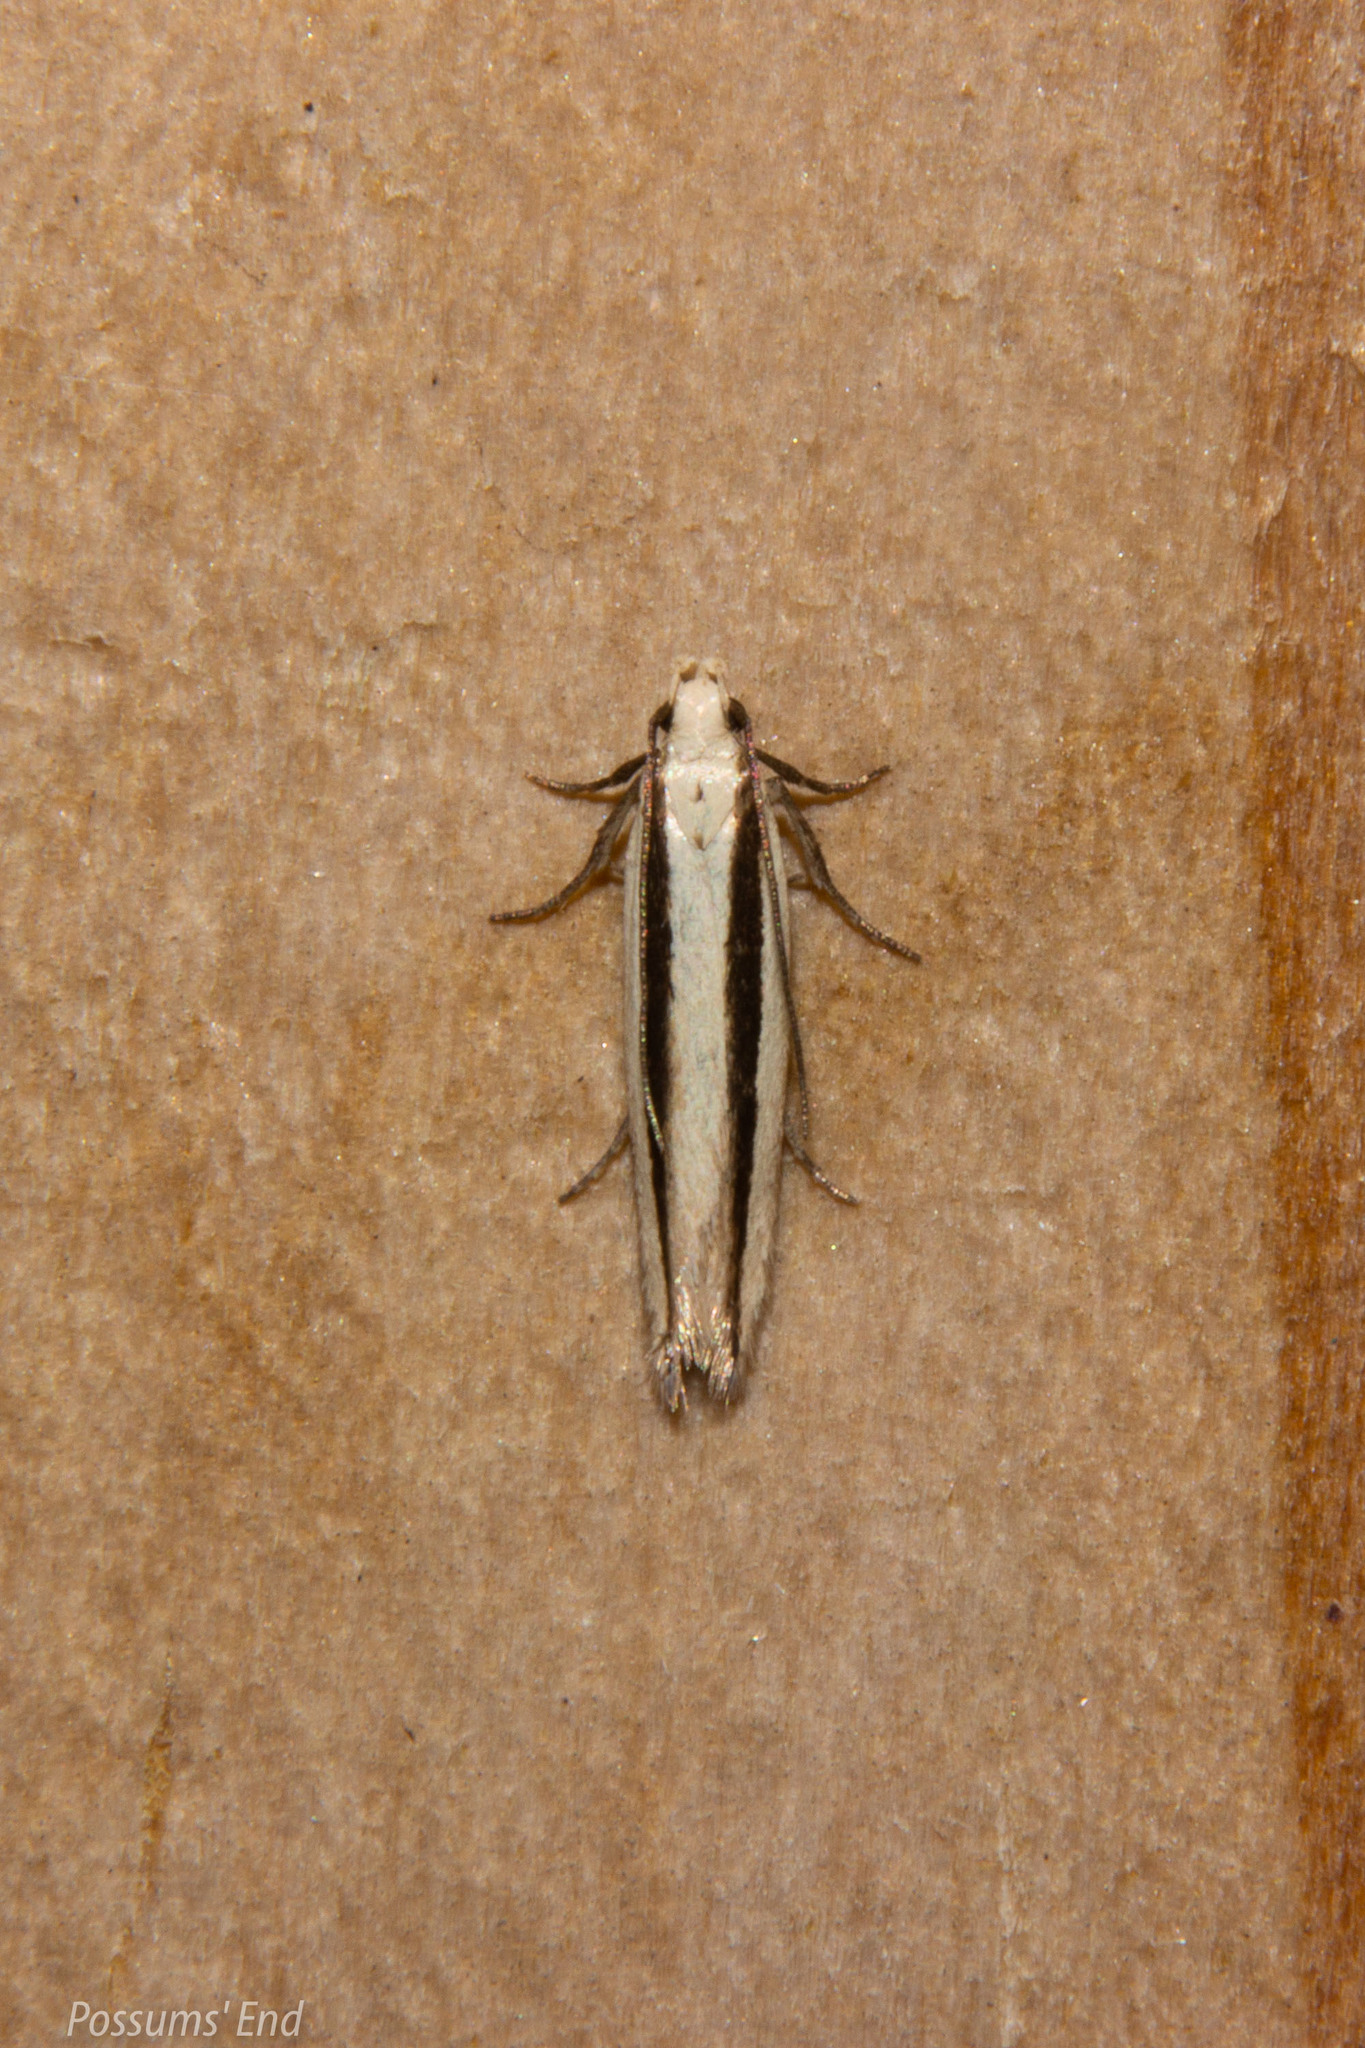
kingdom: Animalia
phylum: Arthropoda
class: Insecta
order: Lepidoptera
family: Gelechiidae
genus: Kiwaia
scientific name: Kiwaia monophragma
